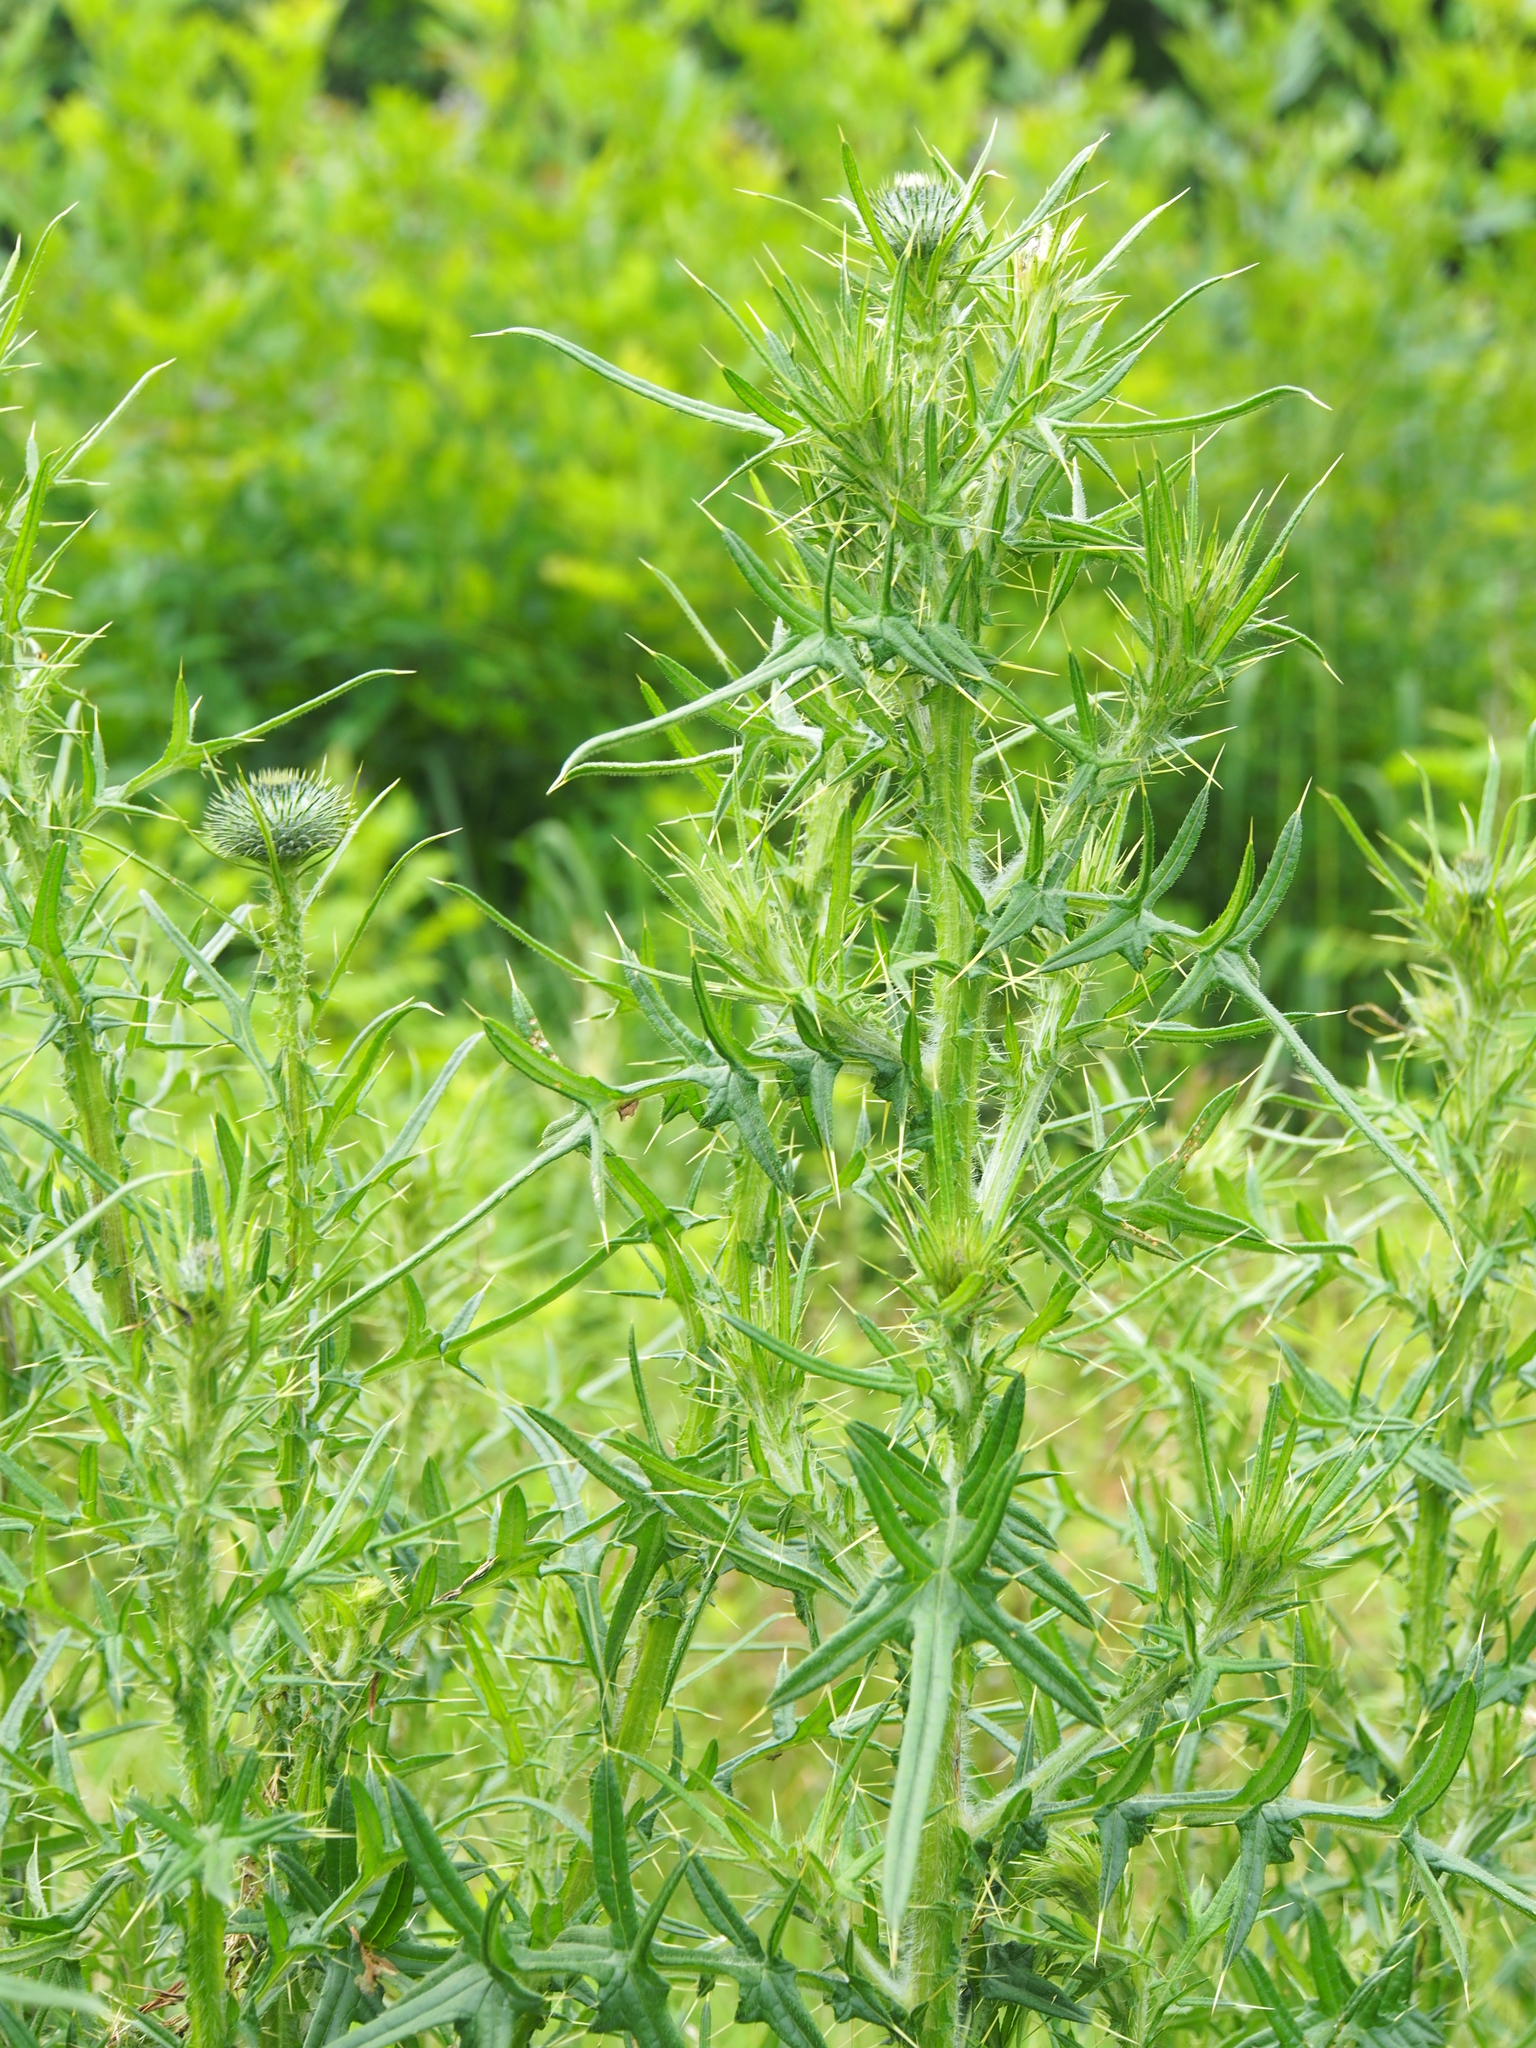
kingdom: Plantae
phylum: Tracheophyta
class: Magnoliopsida
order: Asterales
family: Asteraceae
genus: Cirsium
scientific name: Cirsium vulgare
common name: Bull thistle
